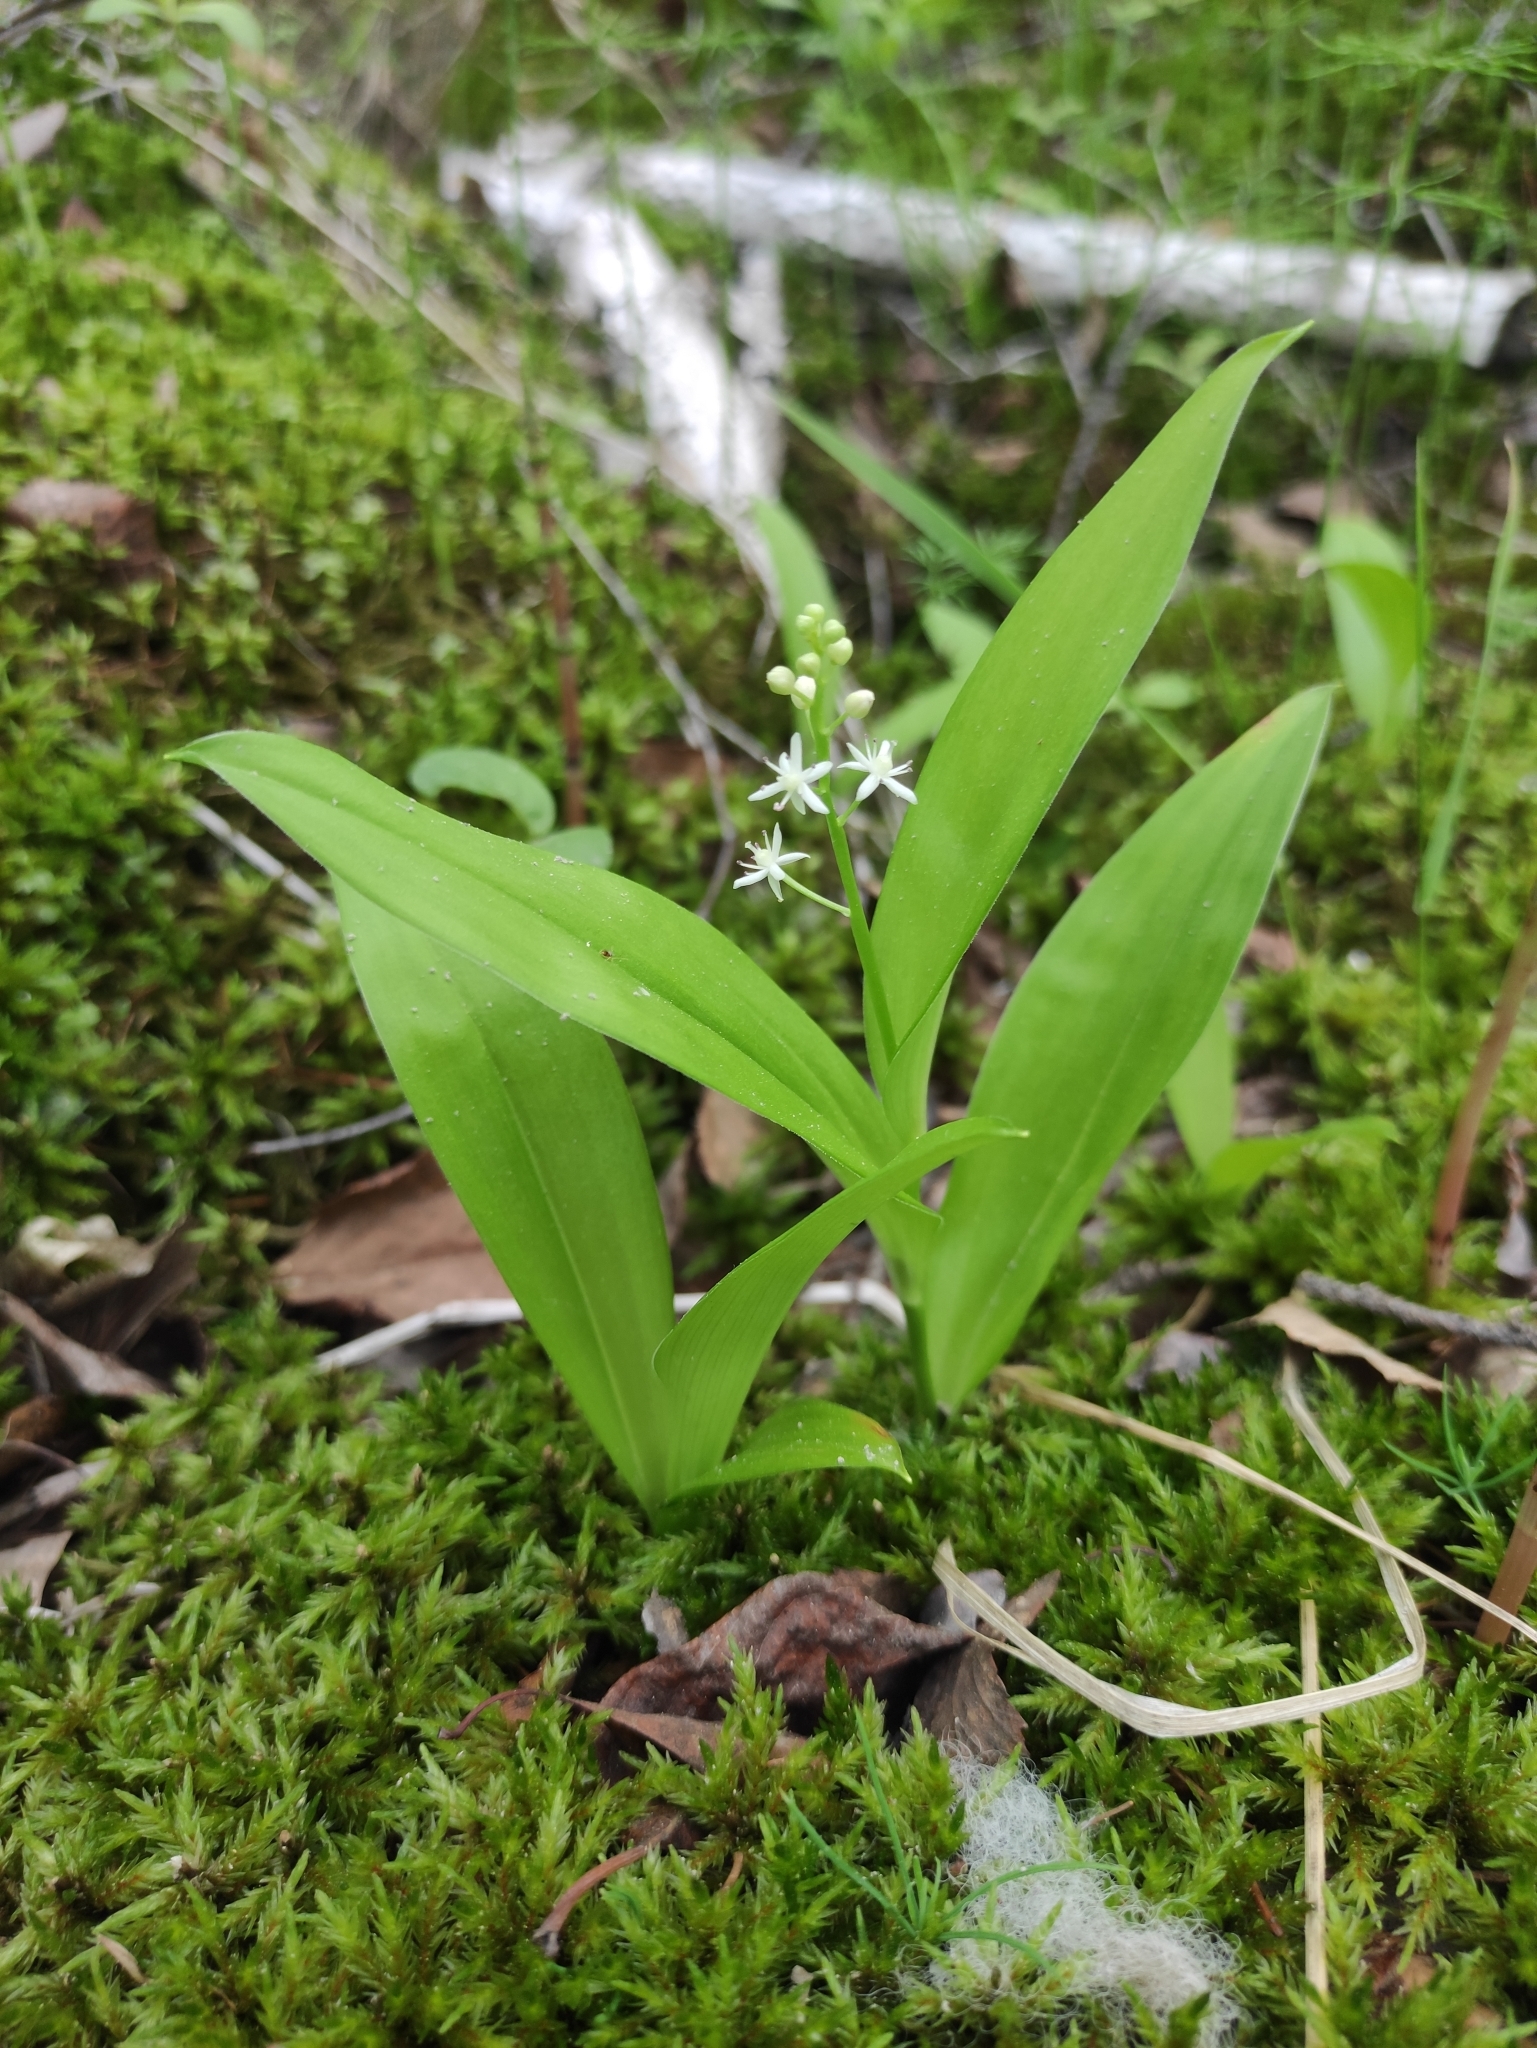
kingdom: Plantae
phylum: Tracheophyta
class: Liliopsida
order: Asparagales
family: Asparagaceae
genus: Maianthemum
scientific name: Maianthemum trifolium
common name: Swamp false solomon's seal
